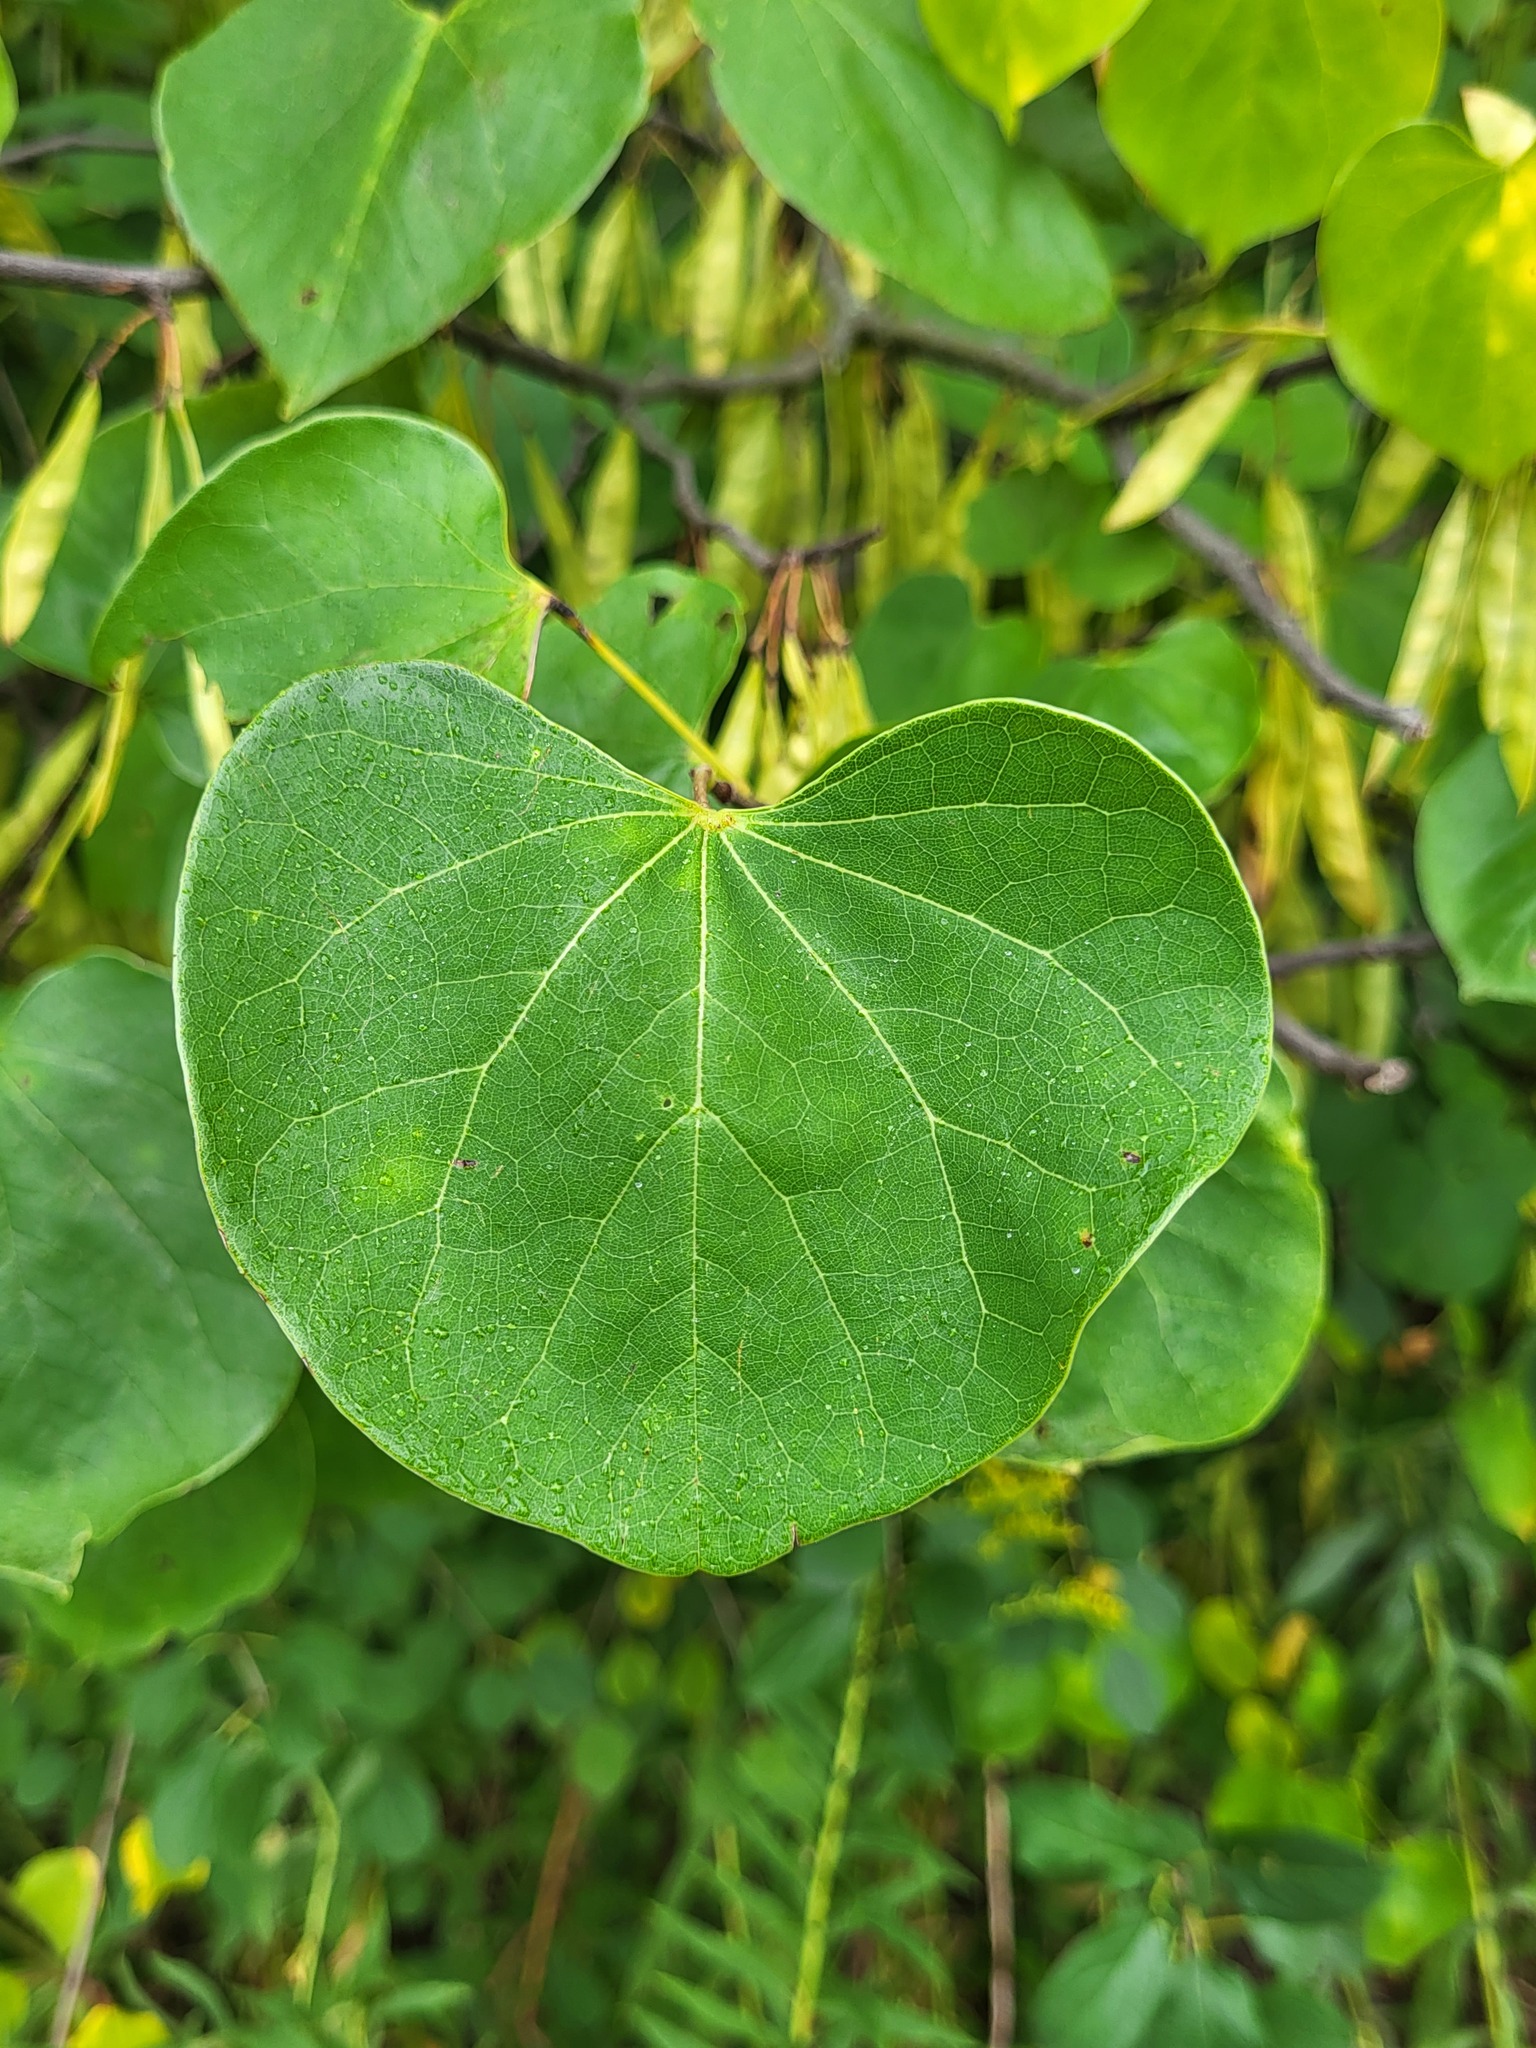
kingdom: Plantae
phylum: Tracheophyta
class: Magnoliopsida
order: Fabales
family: Fabaceae
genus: Cercis
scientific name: Cercis canadensis
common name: Eastern redbud
